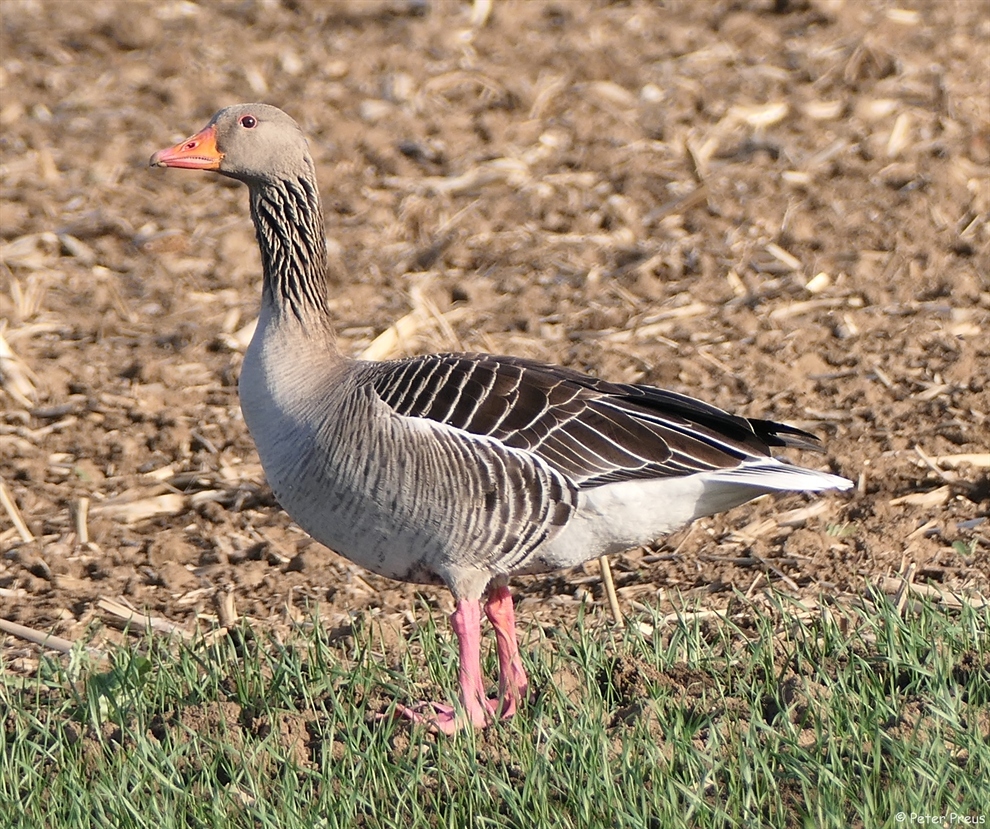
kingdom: Animalia
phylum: Chordata
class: Aves
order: Anseriformes
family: Anatidae
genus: Anser
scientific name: Anser anser
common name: Greylag goose
